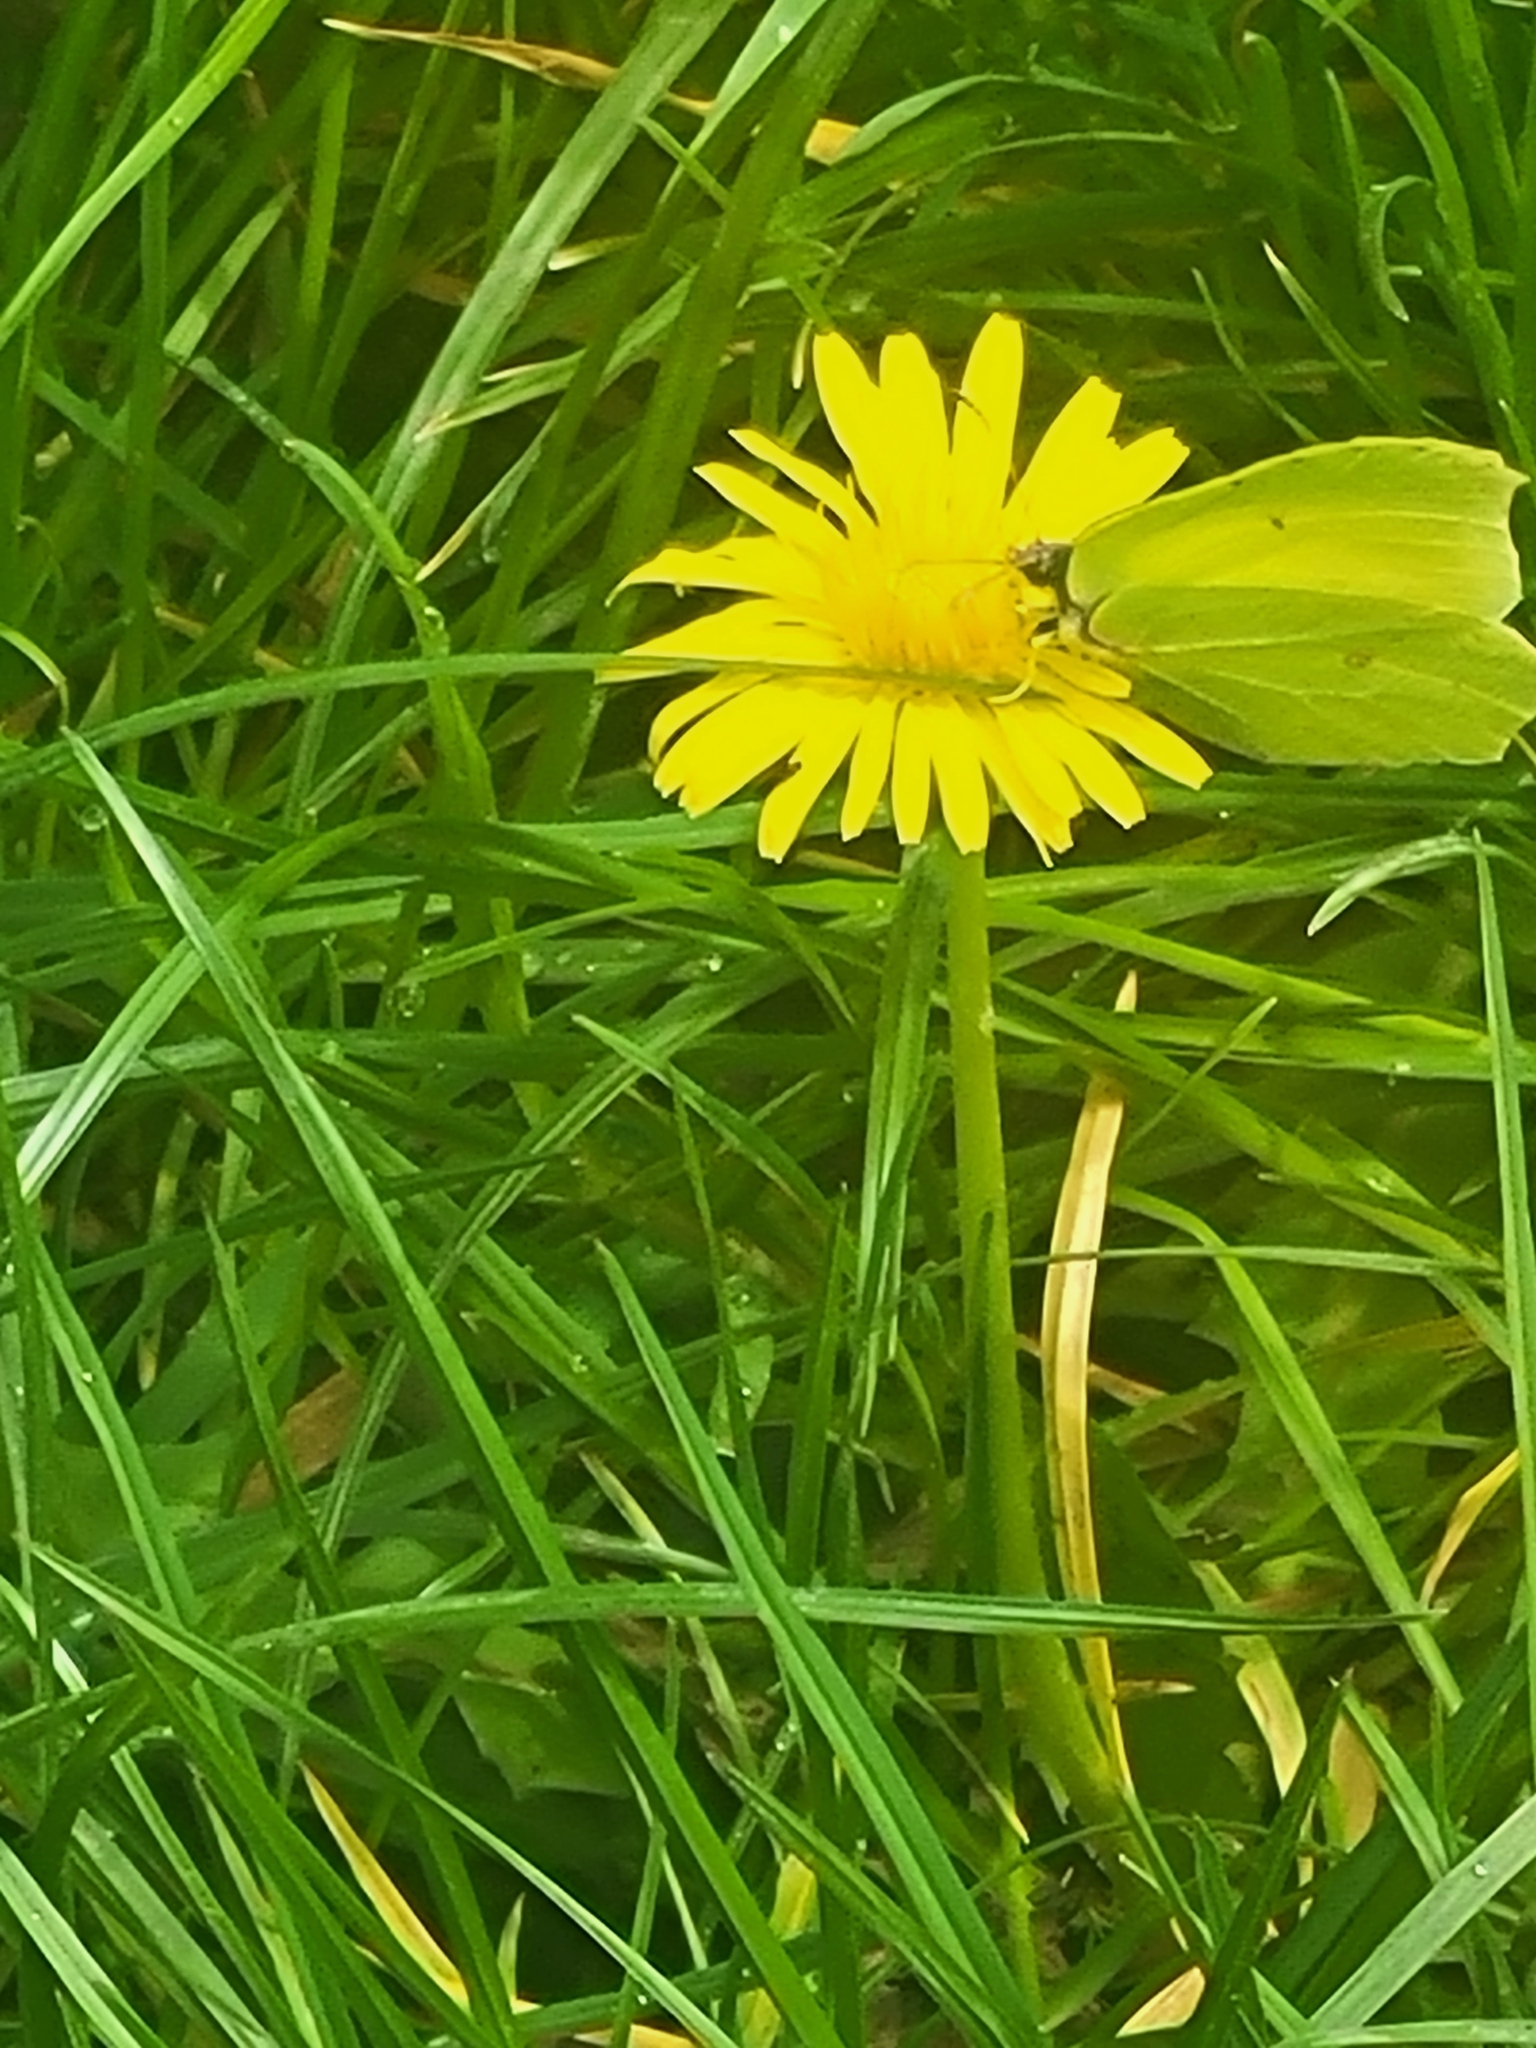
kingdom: Animalia
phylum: Arthropoda
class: Insecta
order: Lepidoptera
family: Pieridae
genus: Gonepteryx
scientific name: Gonepteryx rhamni
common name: Brimstone
